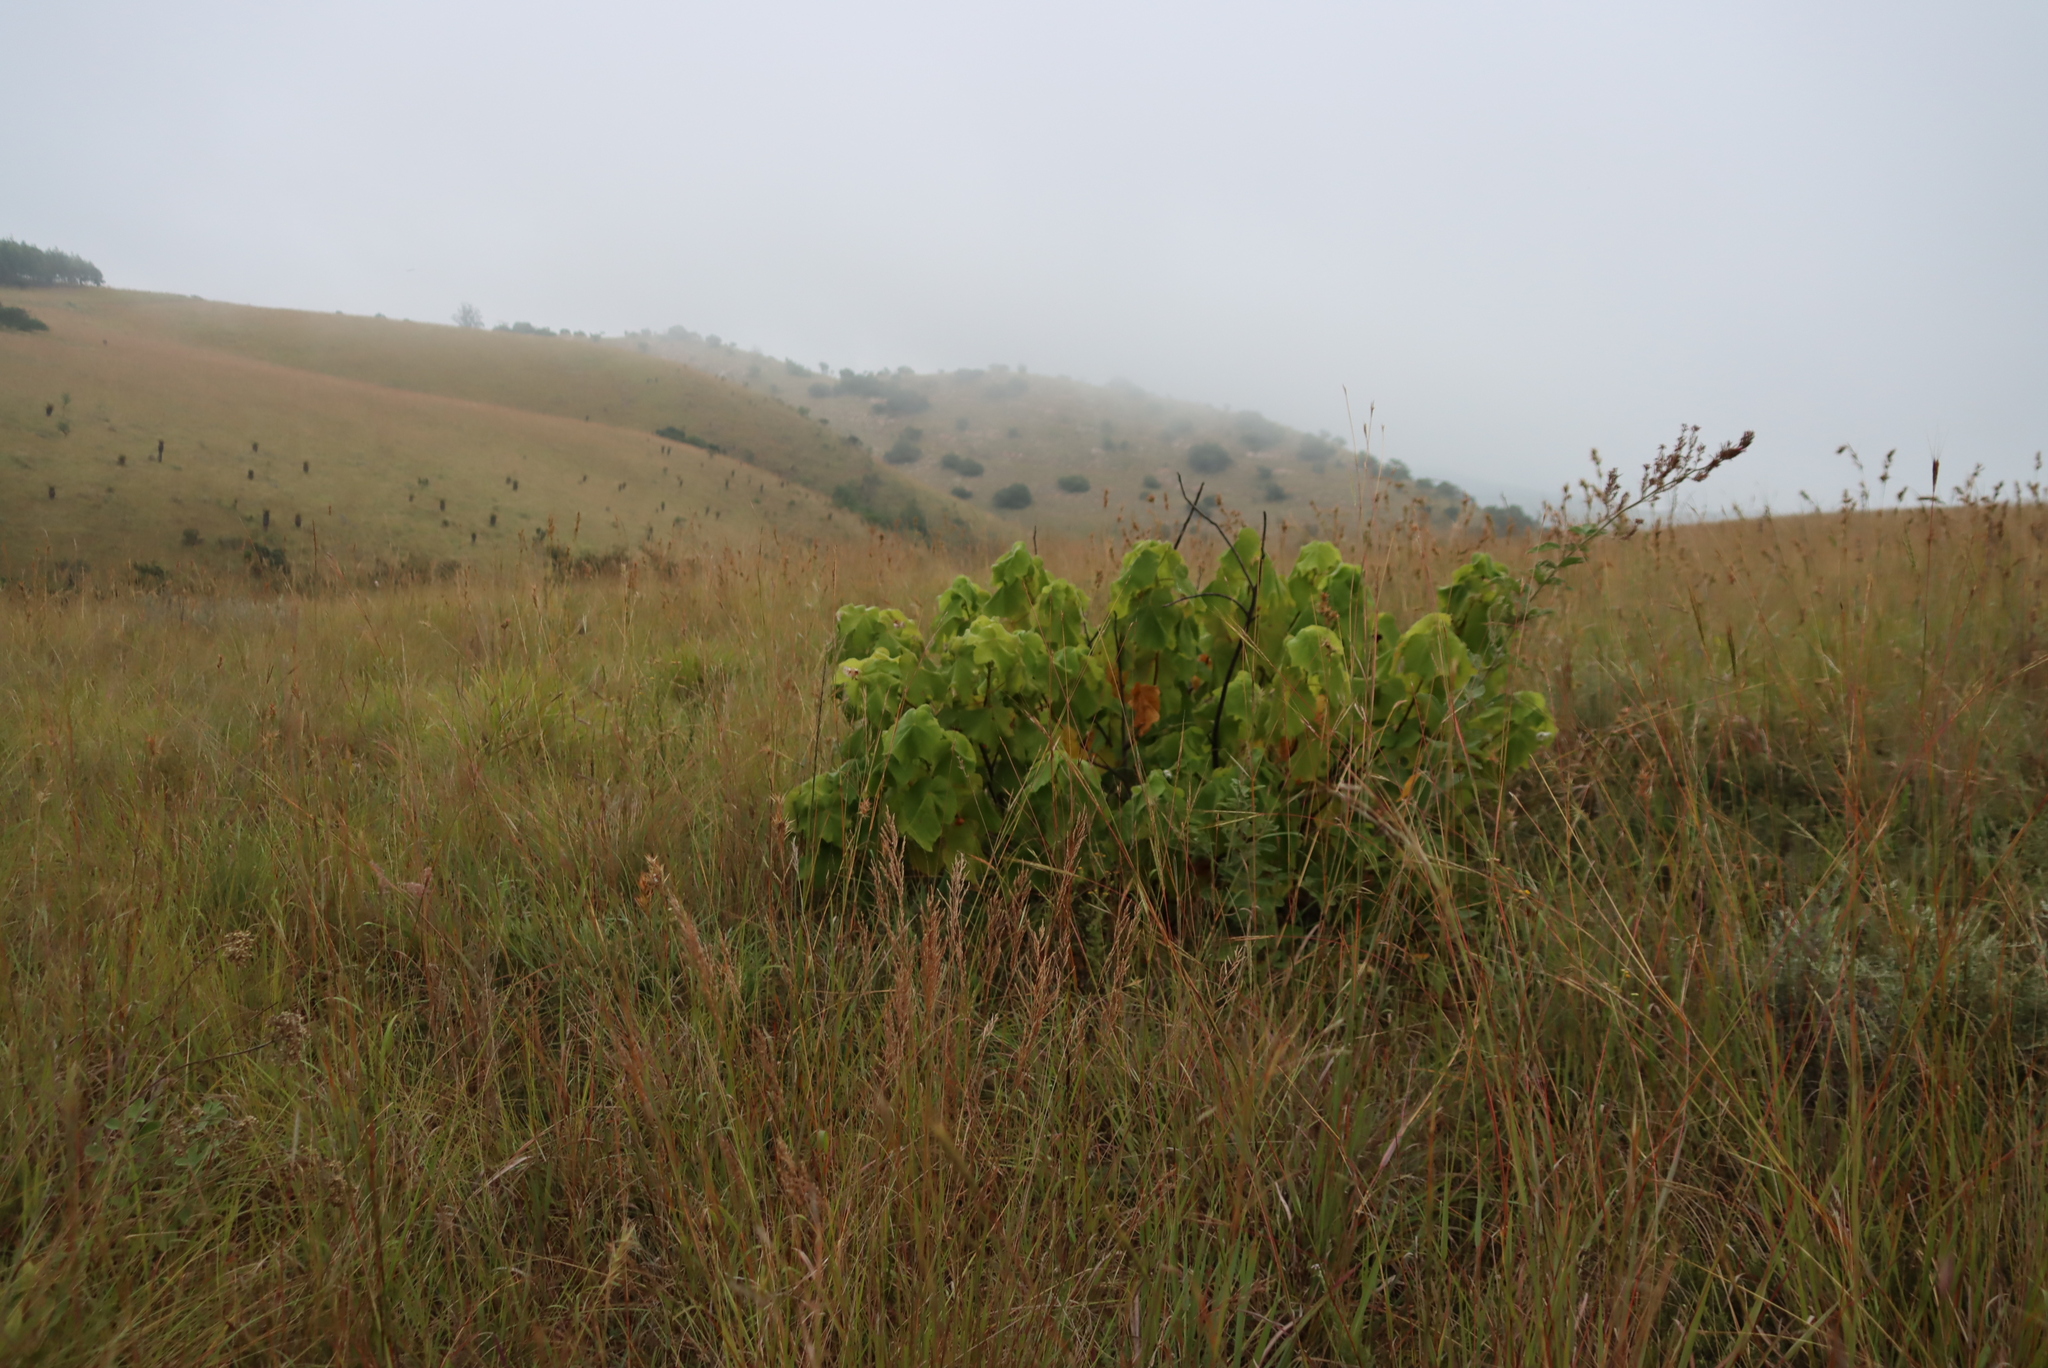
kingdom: Plantae
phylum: Tracheophyta
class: Magnoliopsida
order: Malvales
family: Malvaceae
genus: Dombeya
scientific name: Dombeya burgessiae
